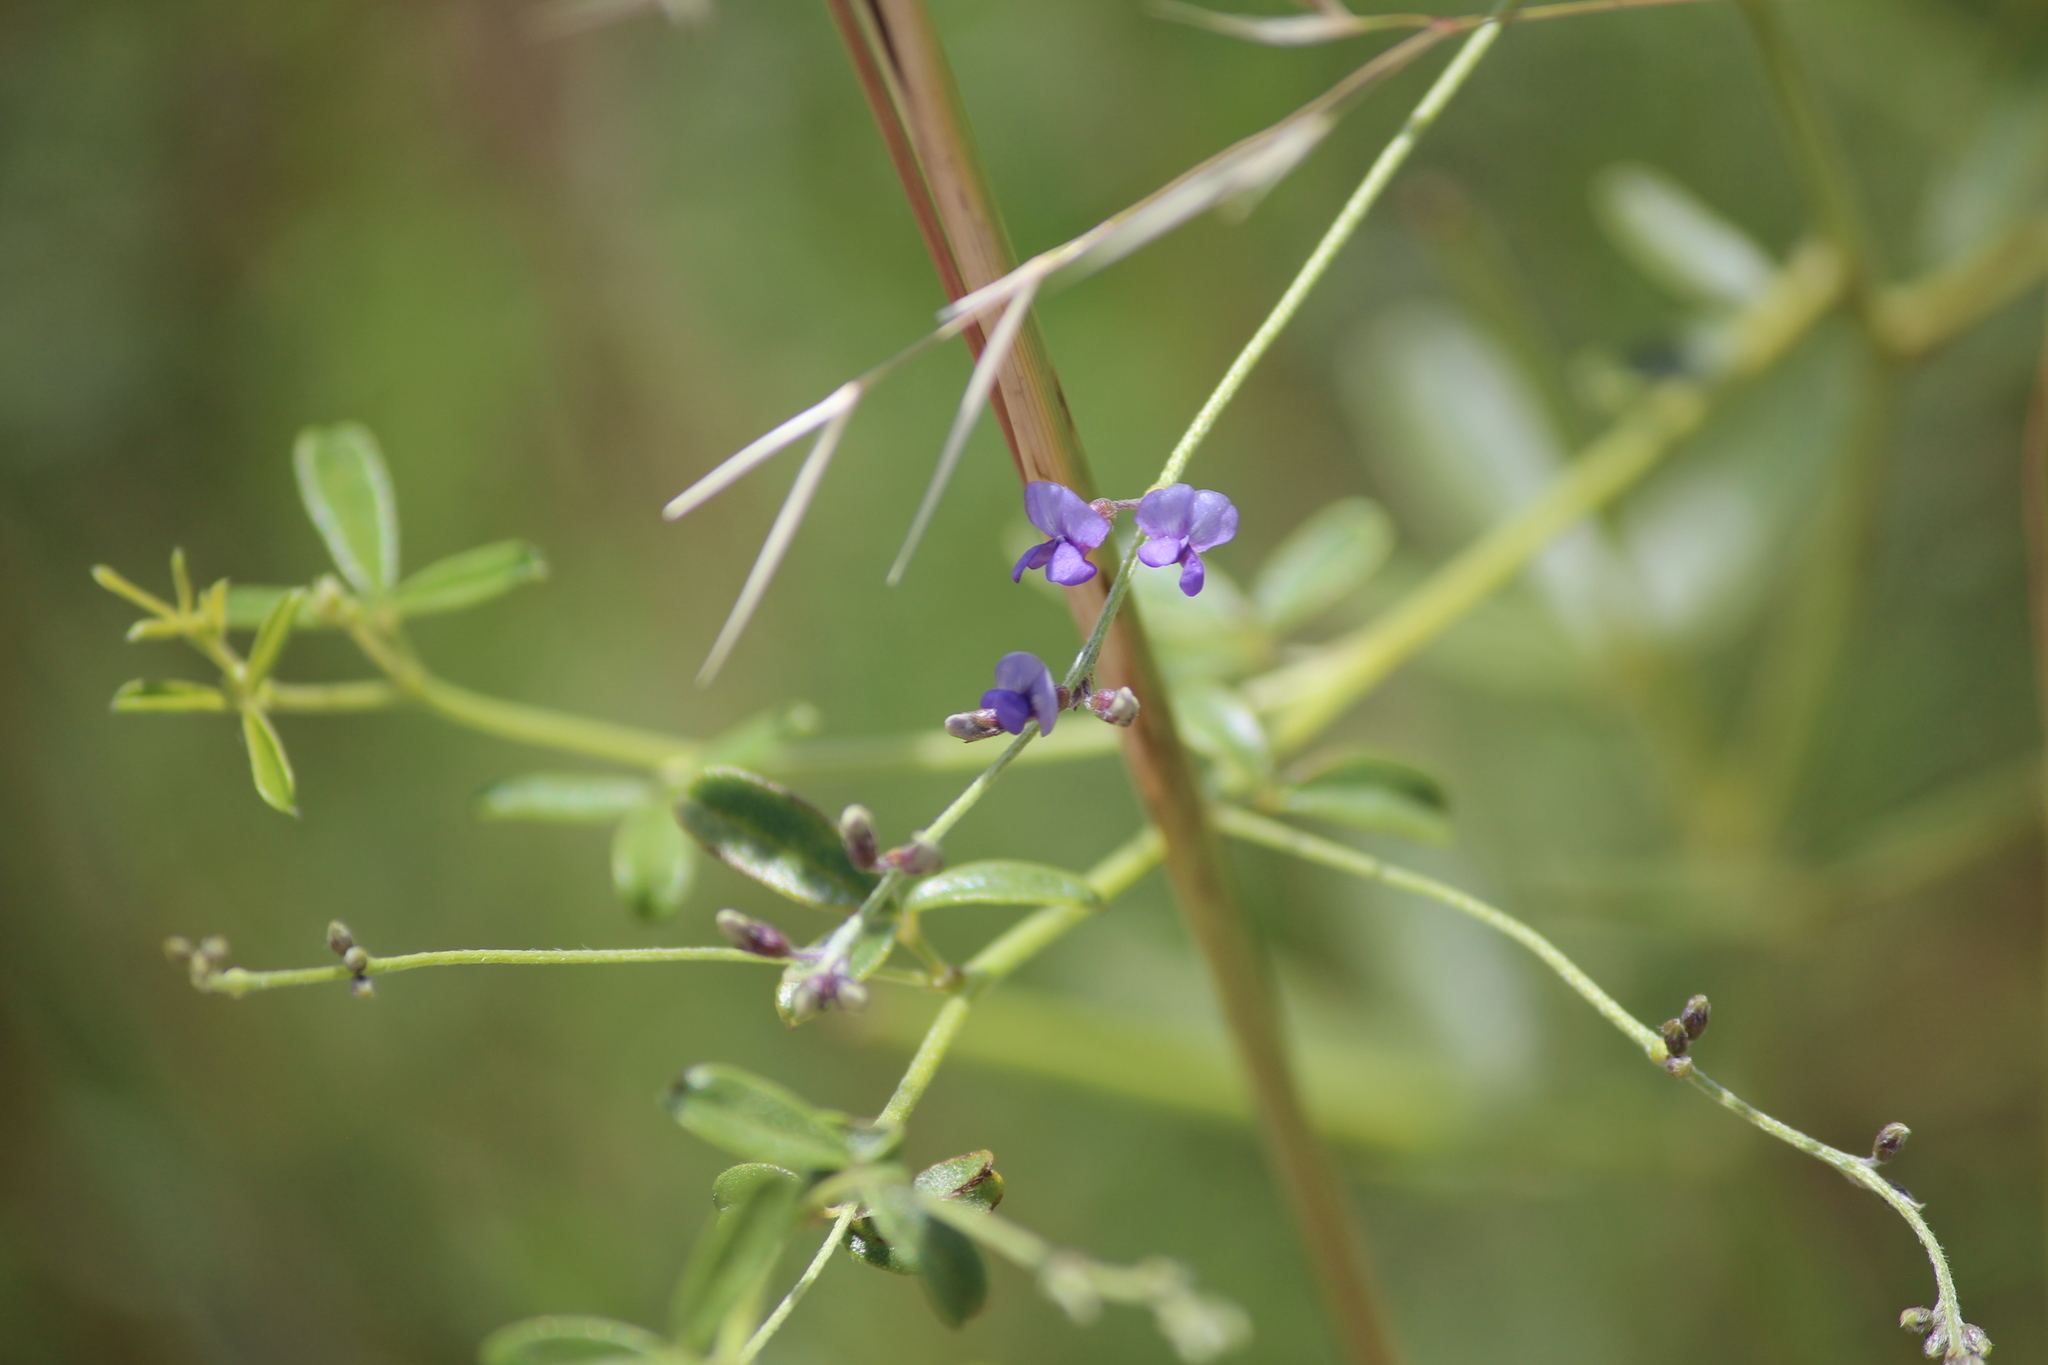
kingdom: Plantae
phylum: Tracheophyta
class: Magnoliopsida
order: Fabales
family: Fabaceae
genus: Pediomelum
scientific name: Pediomelum tenuiflorum
